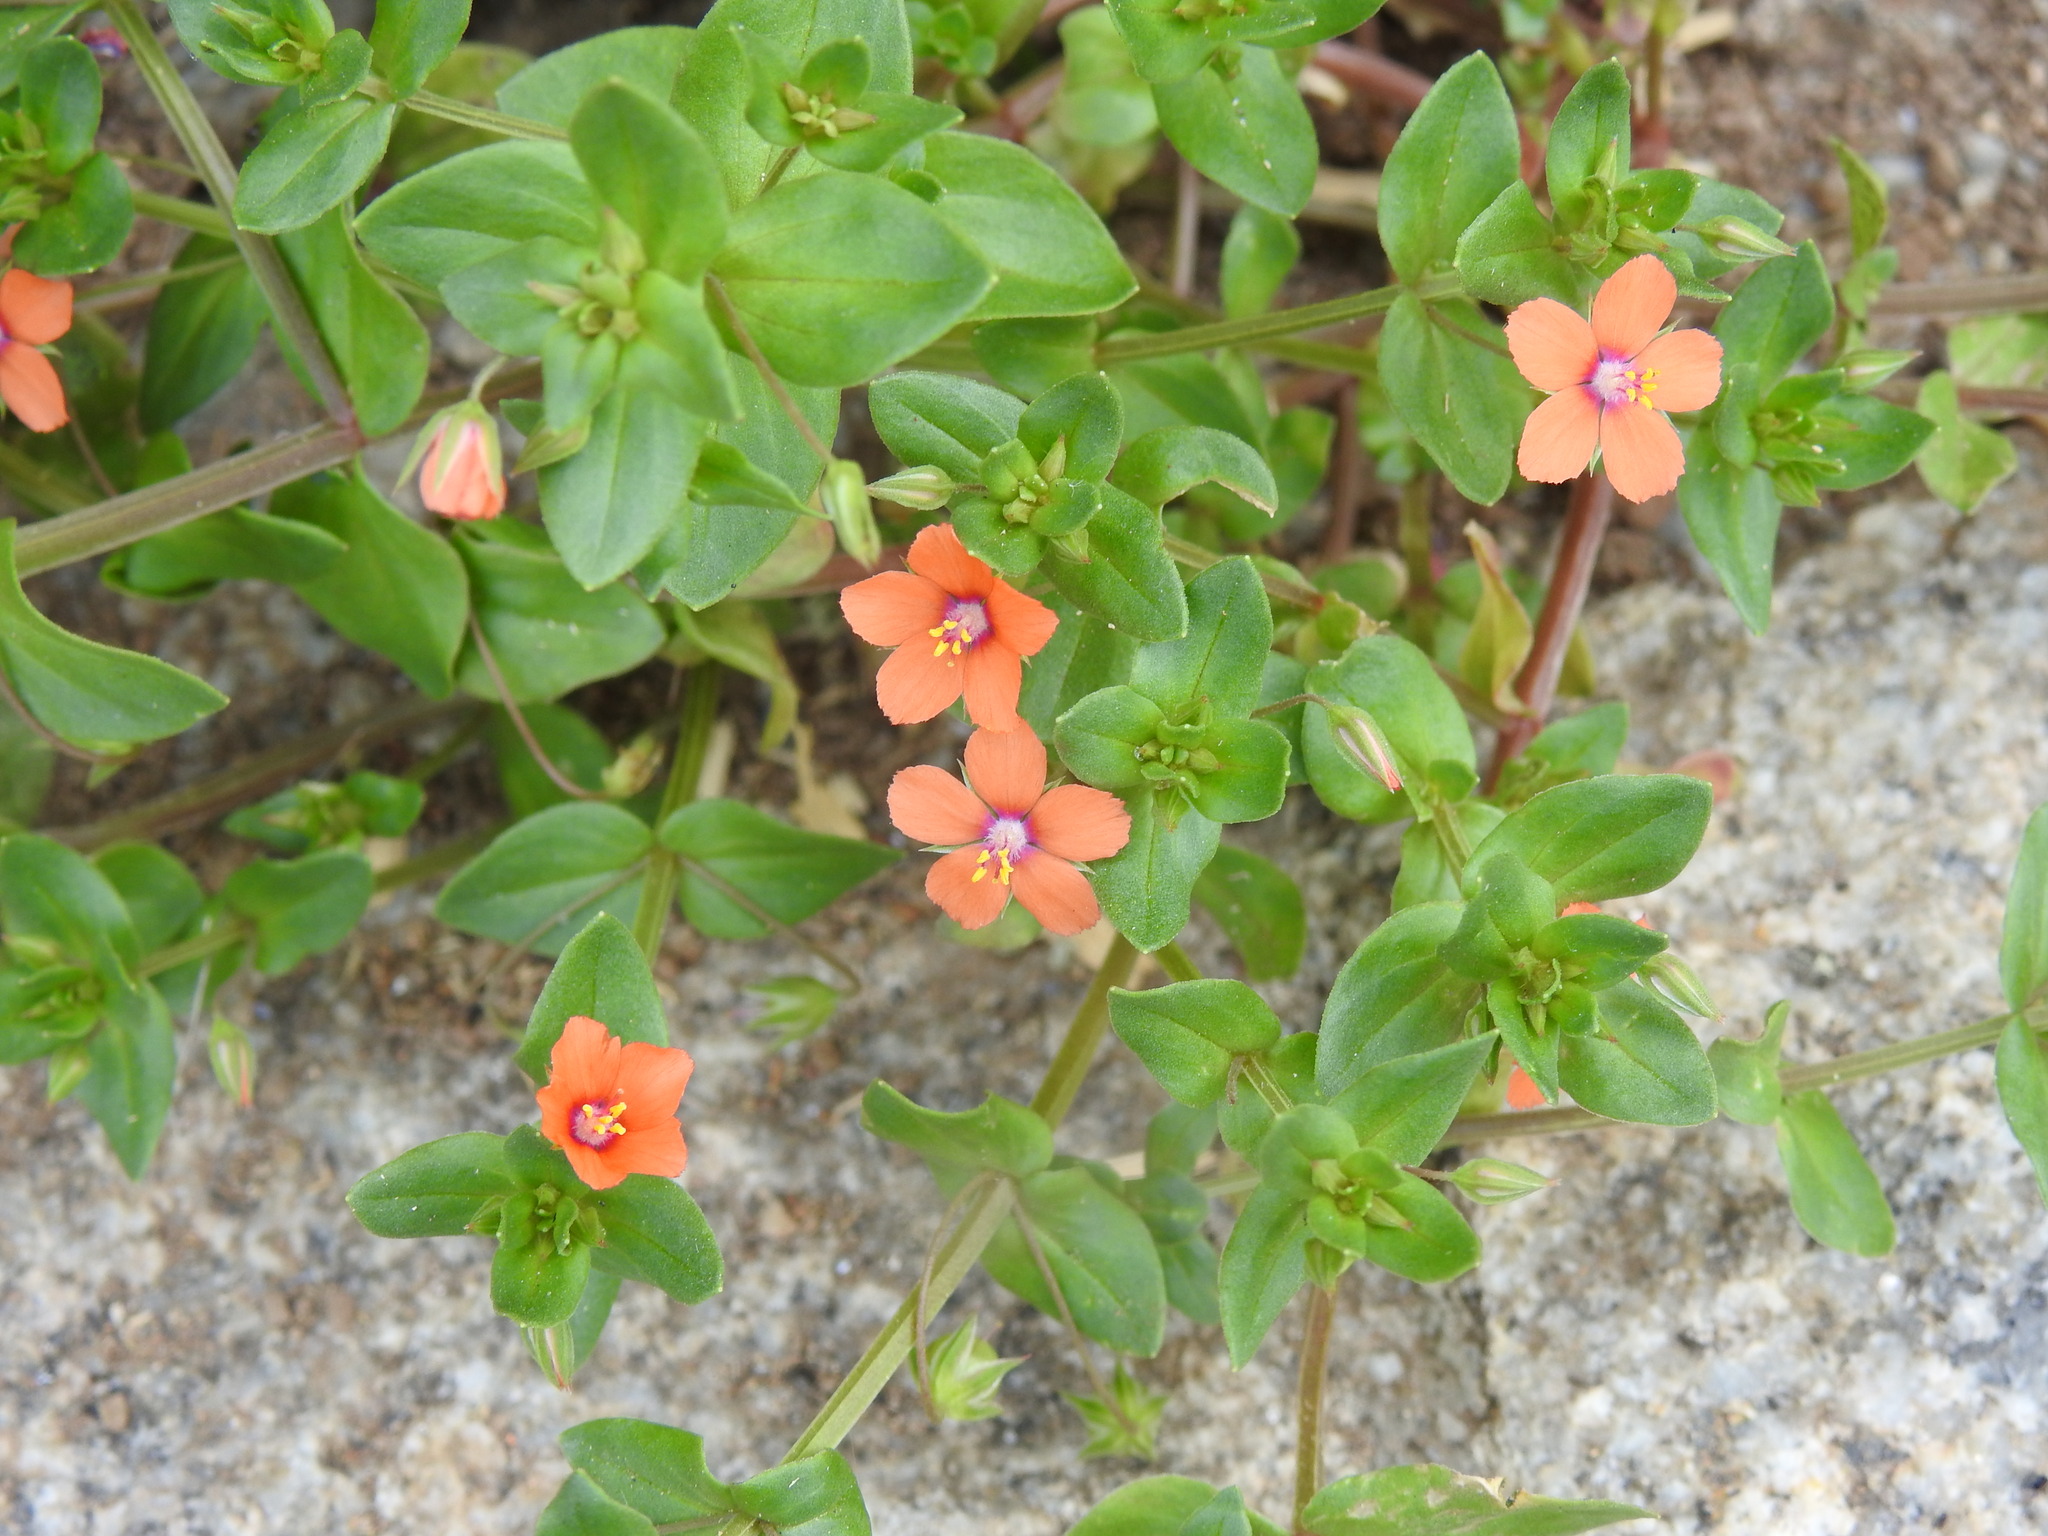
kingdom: Plantae
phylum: Tracheophyta
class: Magnoliopsida
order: Ericales
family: Primulaceae
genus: Lysimachia
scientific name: Lysimachia arvensis
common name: Scarlet pimpernel
